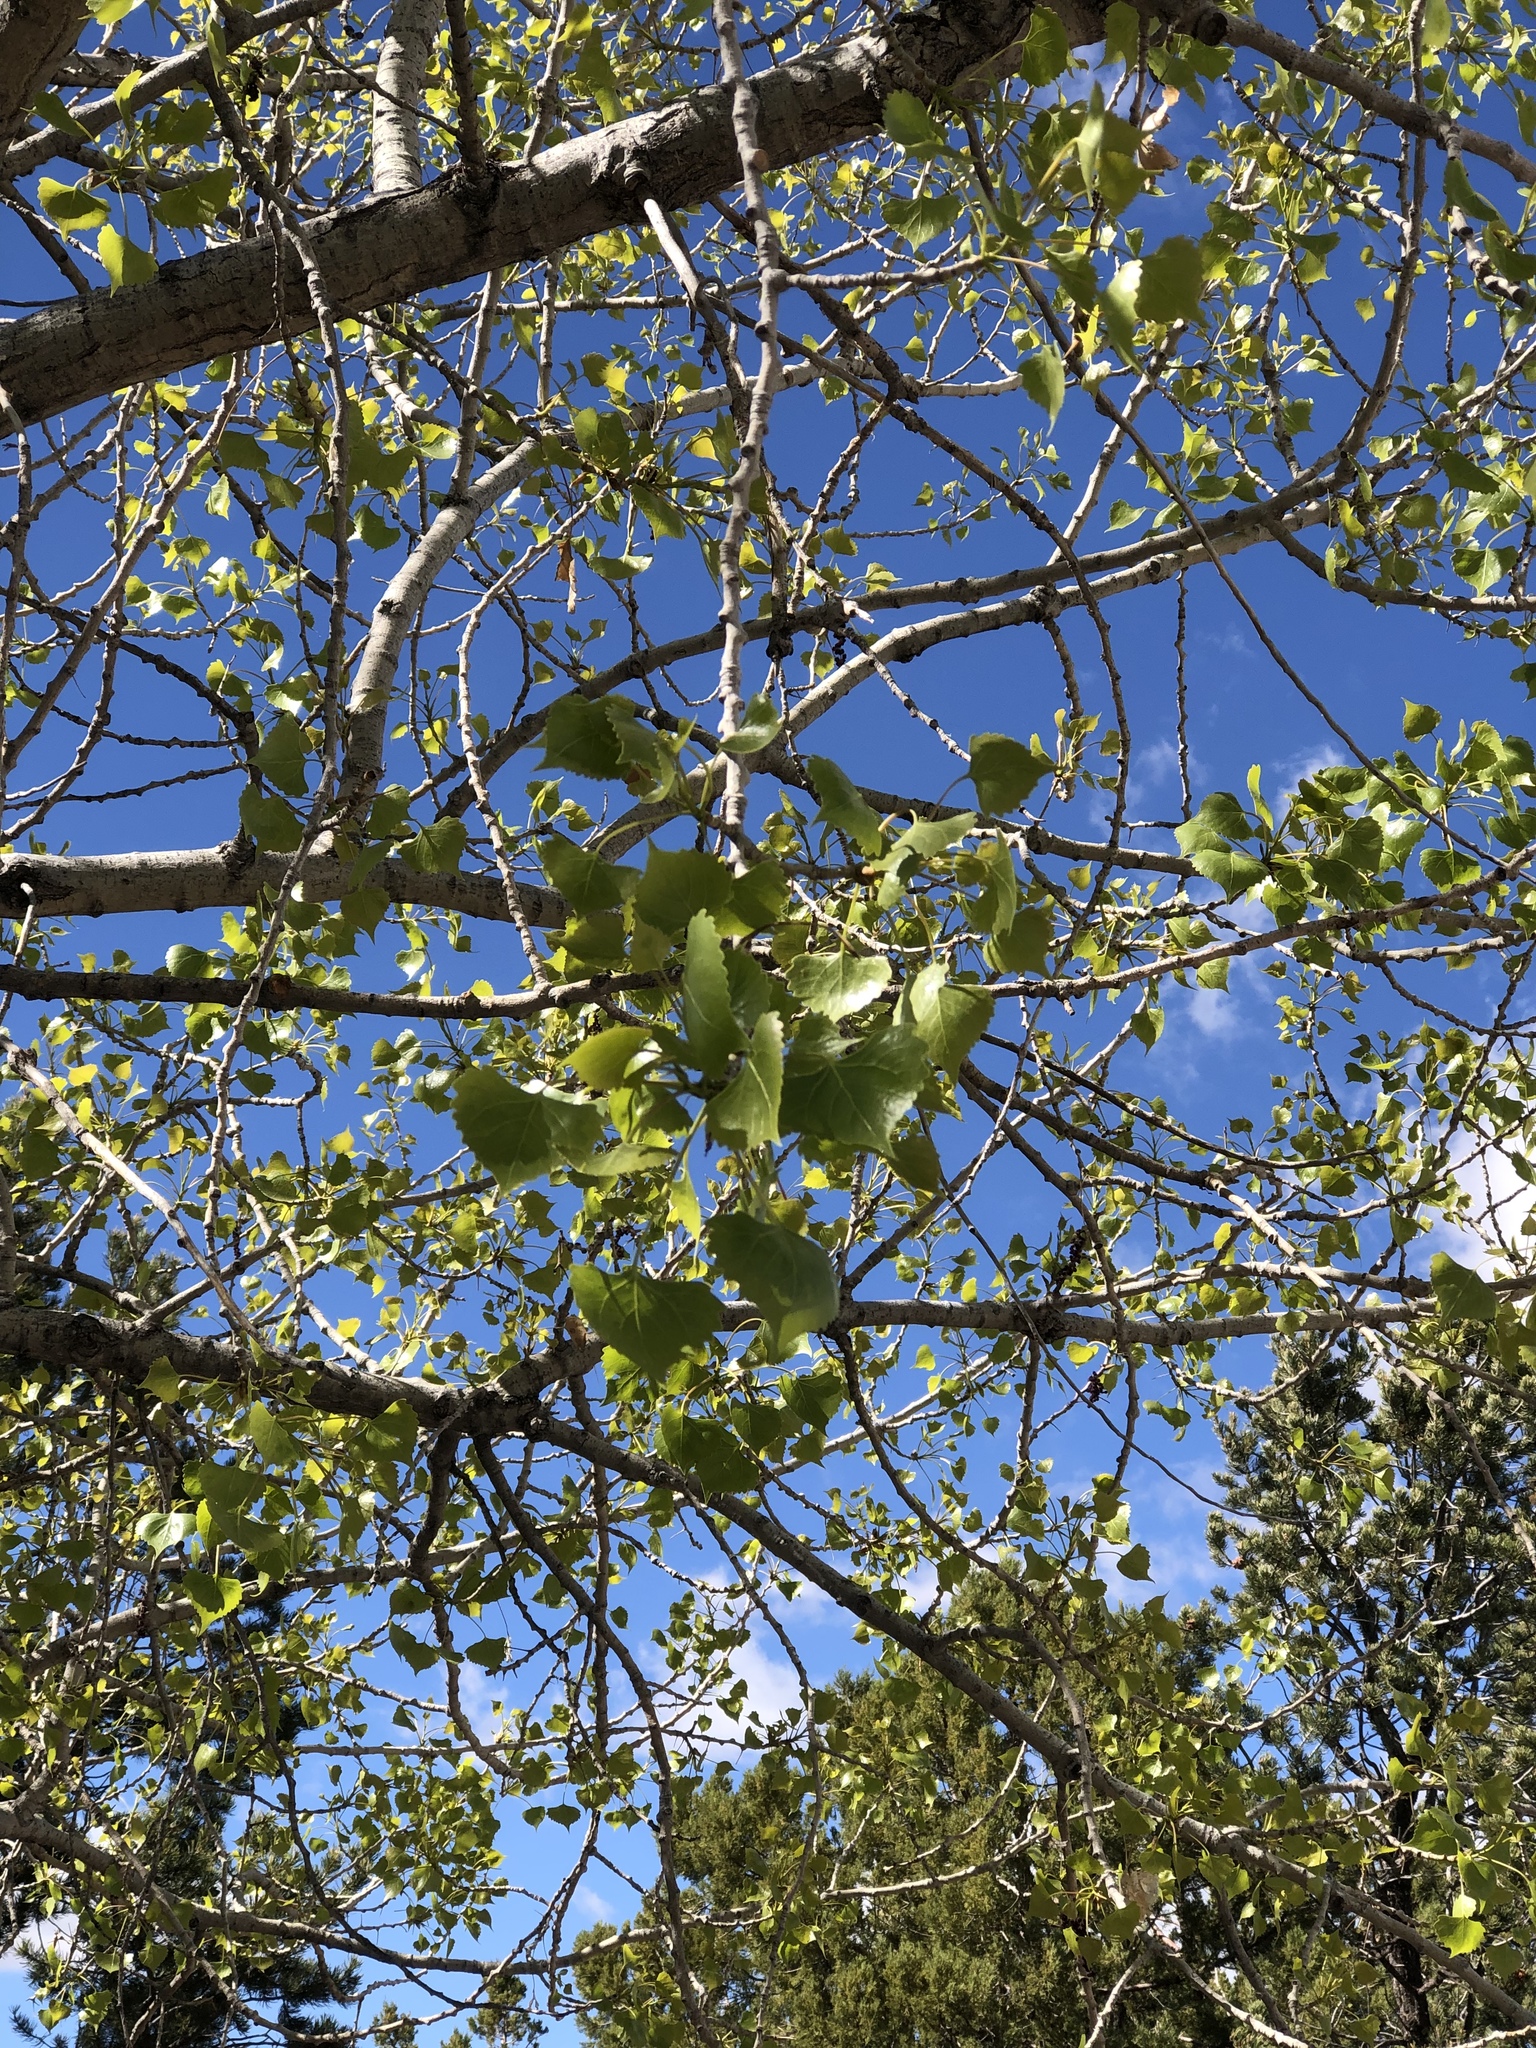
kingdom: Plantae
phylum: Tracheophyta
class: Magnoliopsida
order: Malpighiales
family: Salicaceae
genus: Populus
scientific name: Populus fremontii
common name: Fremont's cottonwood
